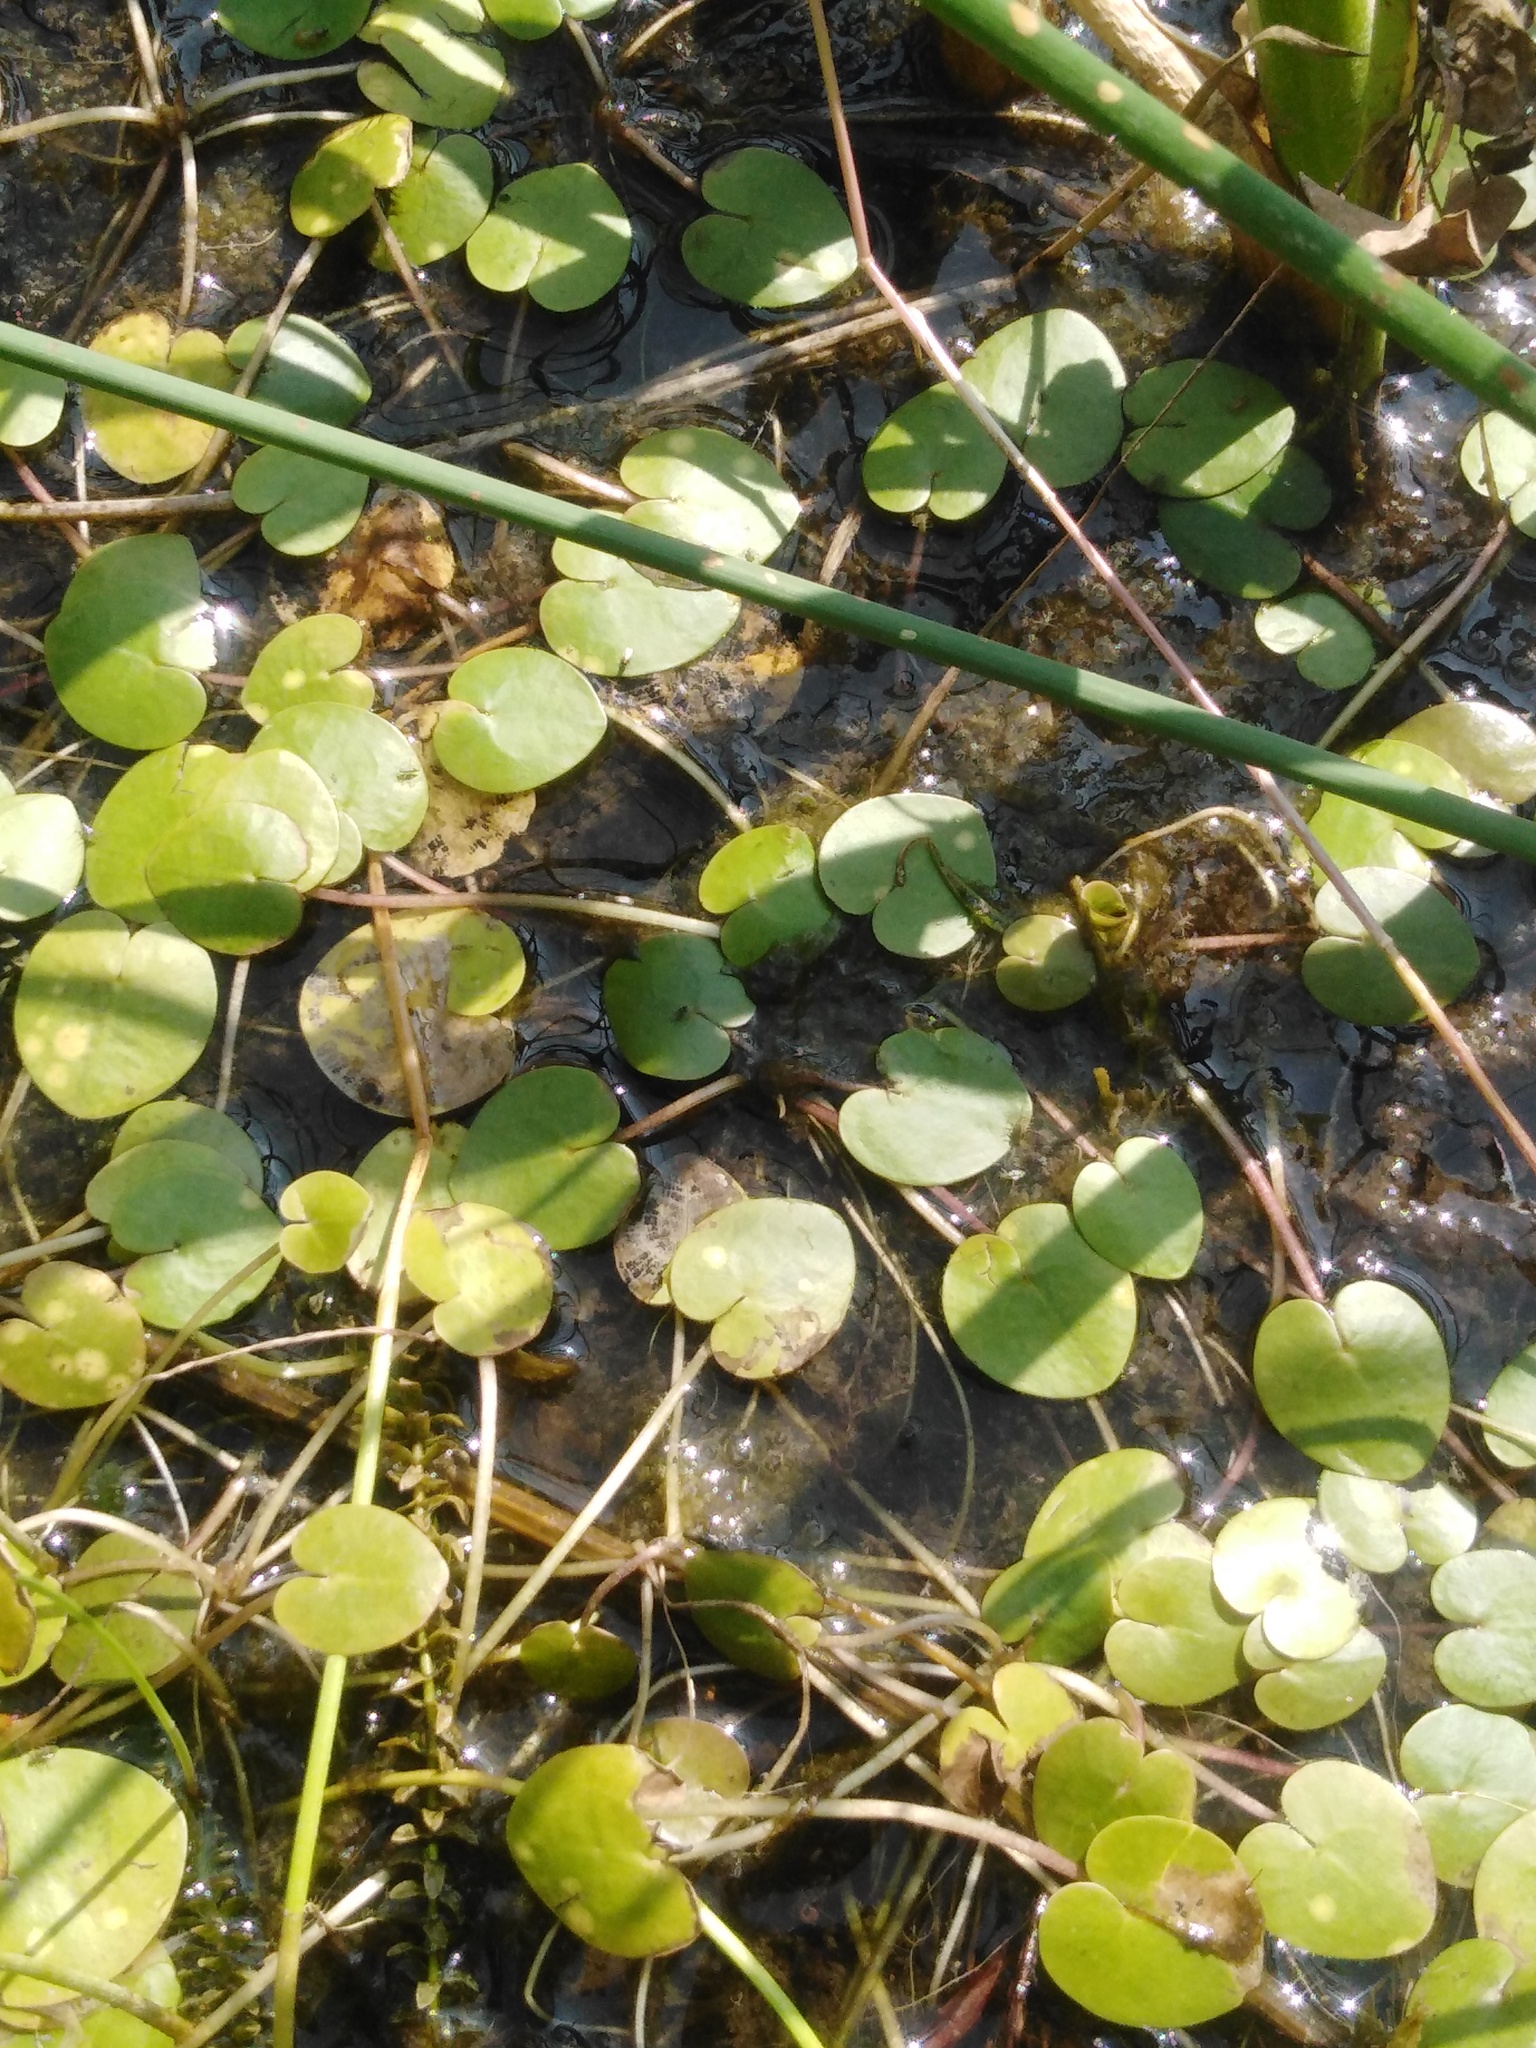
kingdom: Plantae
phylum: Tracheophyta
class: Liliopsida
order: Alismatales
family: Hydrocharitaceae
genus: Hydrocharis
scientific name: Hydrocharis morsus-ranae
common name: Frogbit
